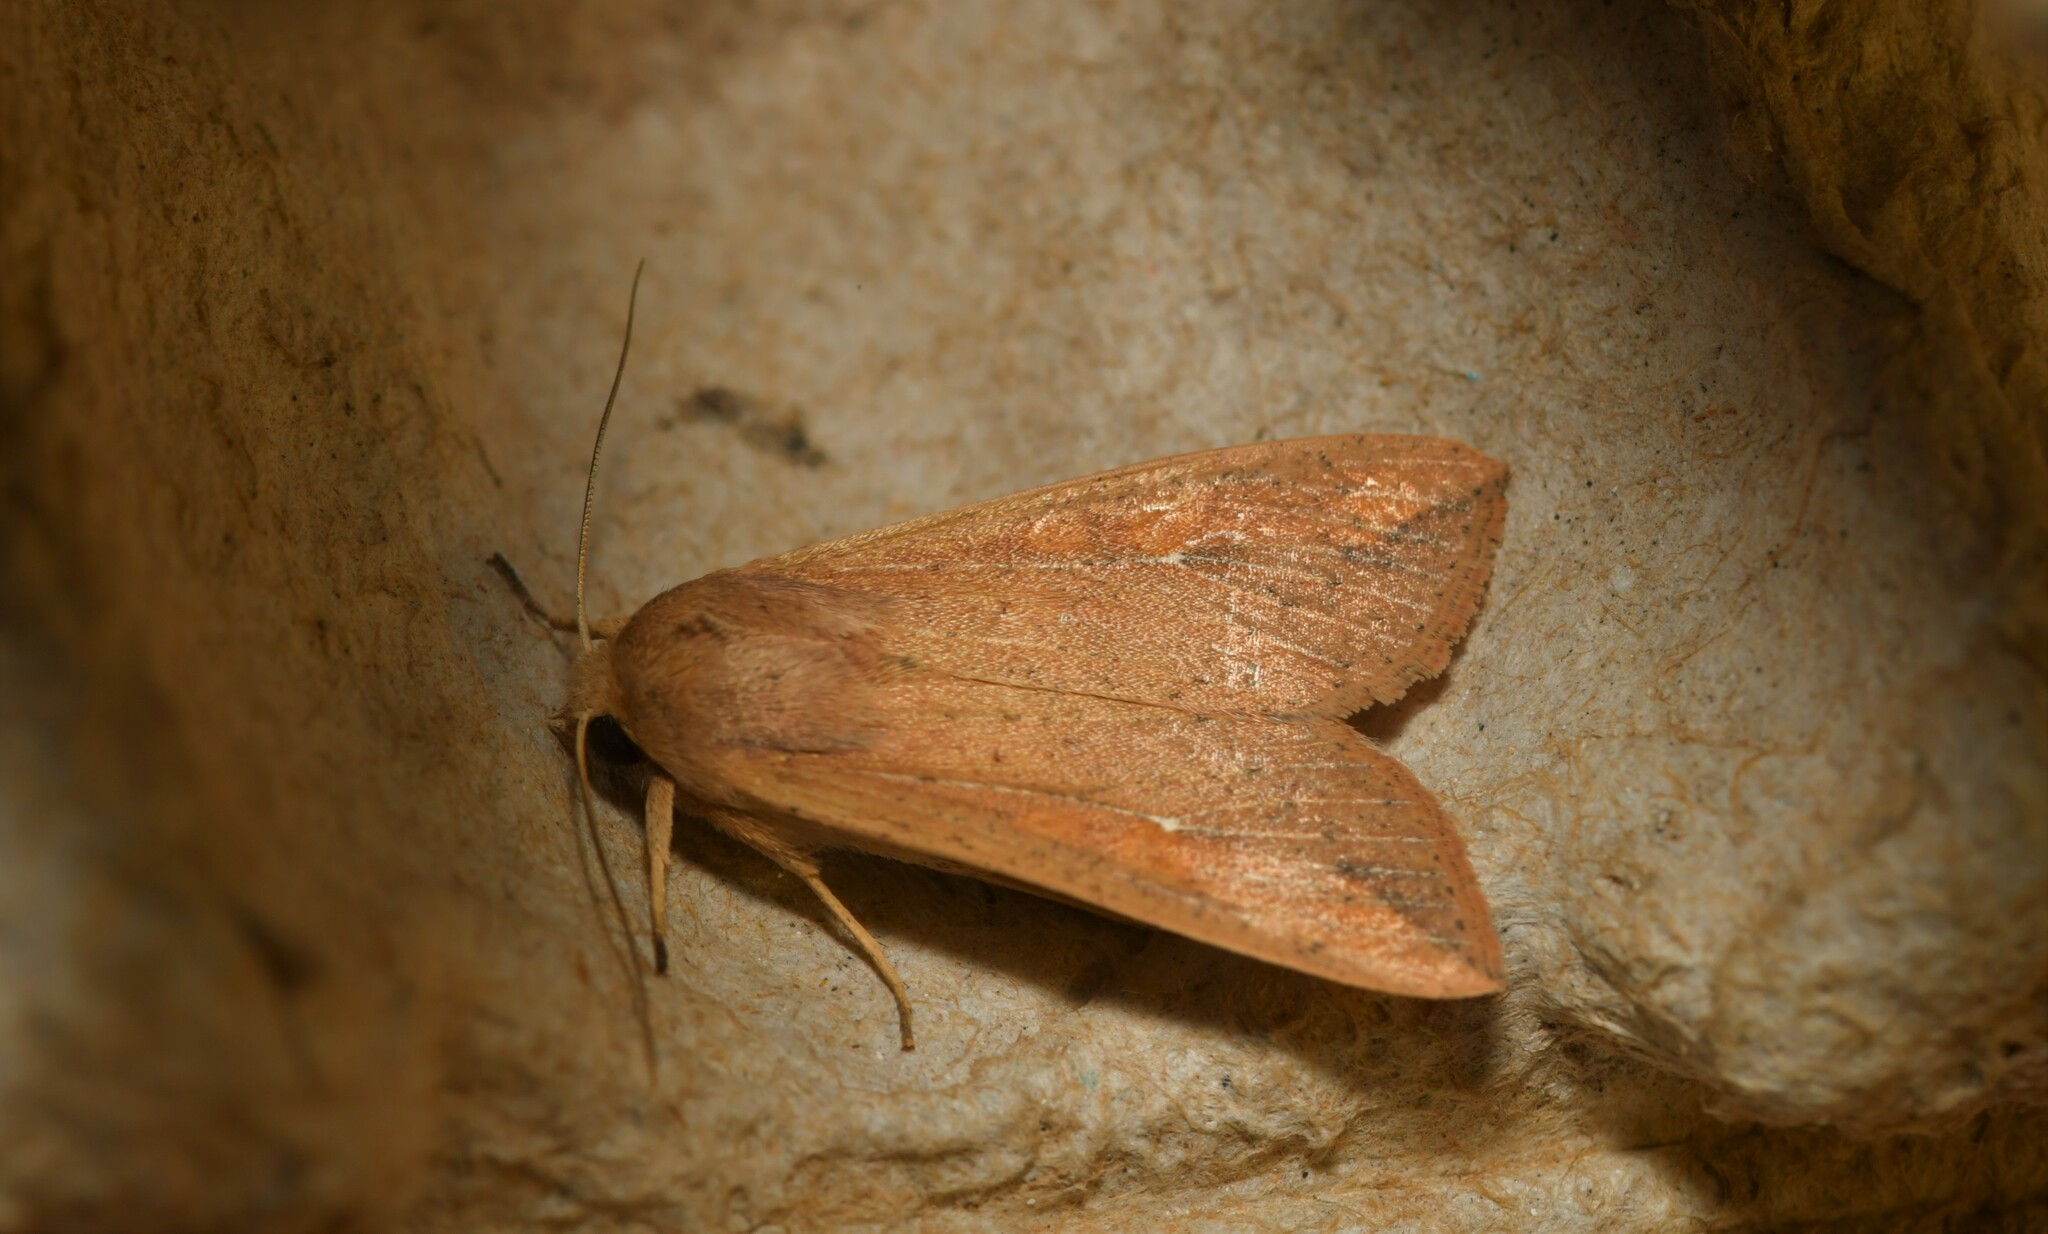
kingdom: Animalia
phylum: Arthropoda
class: Insecta
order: Lepidoptera
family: Noctuidae
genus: Mythimna
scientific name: Mythimna unipuncta
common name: White-speck
